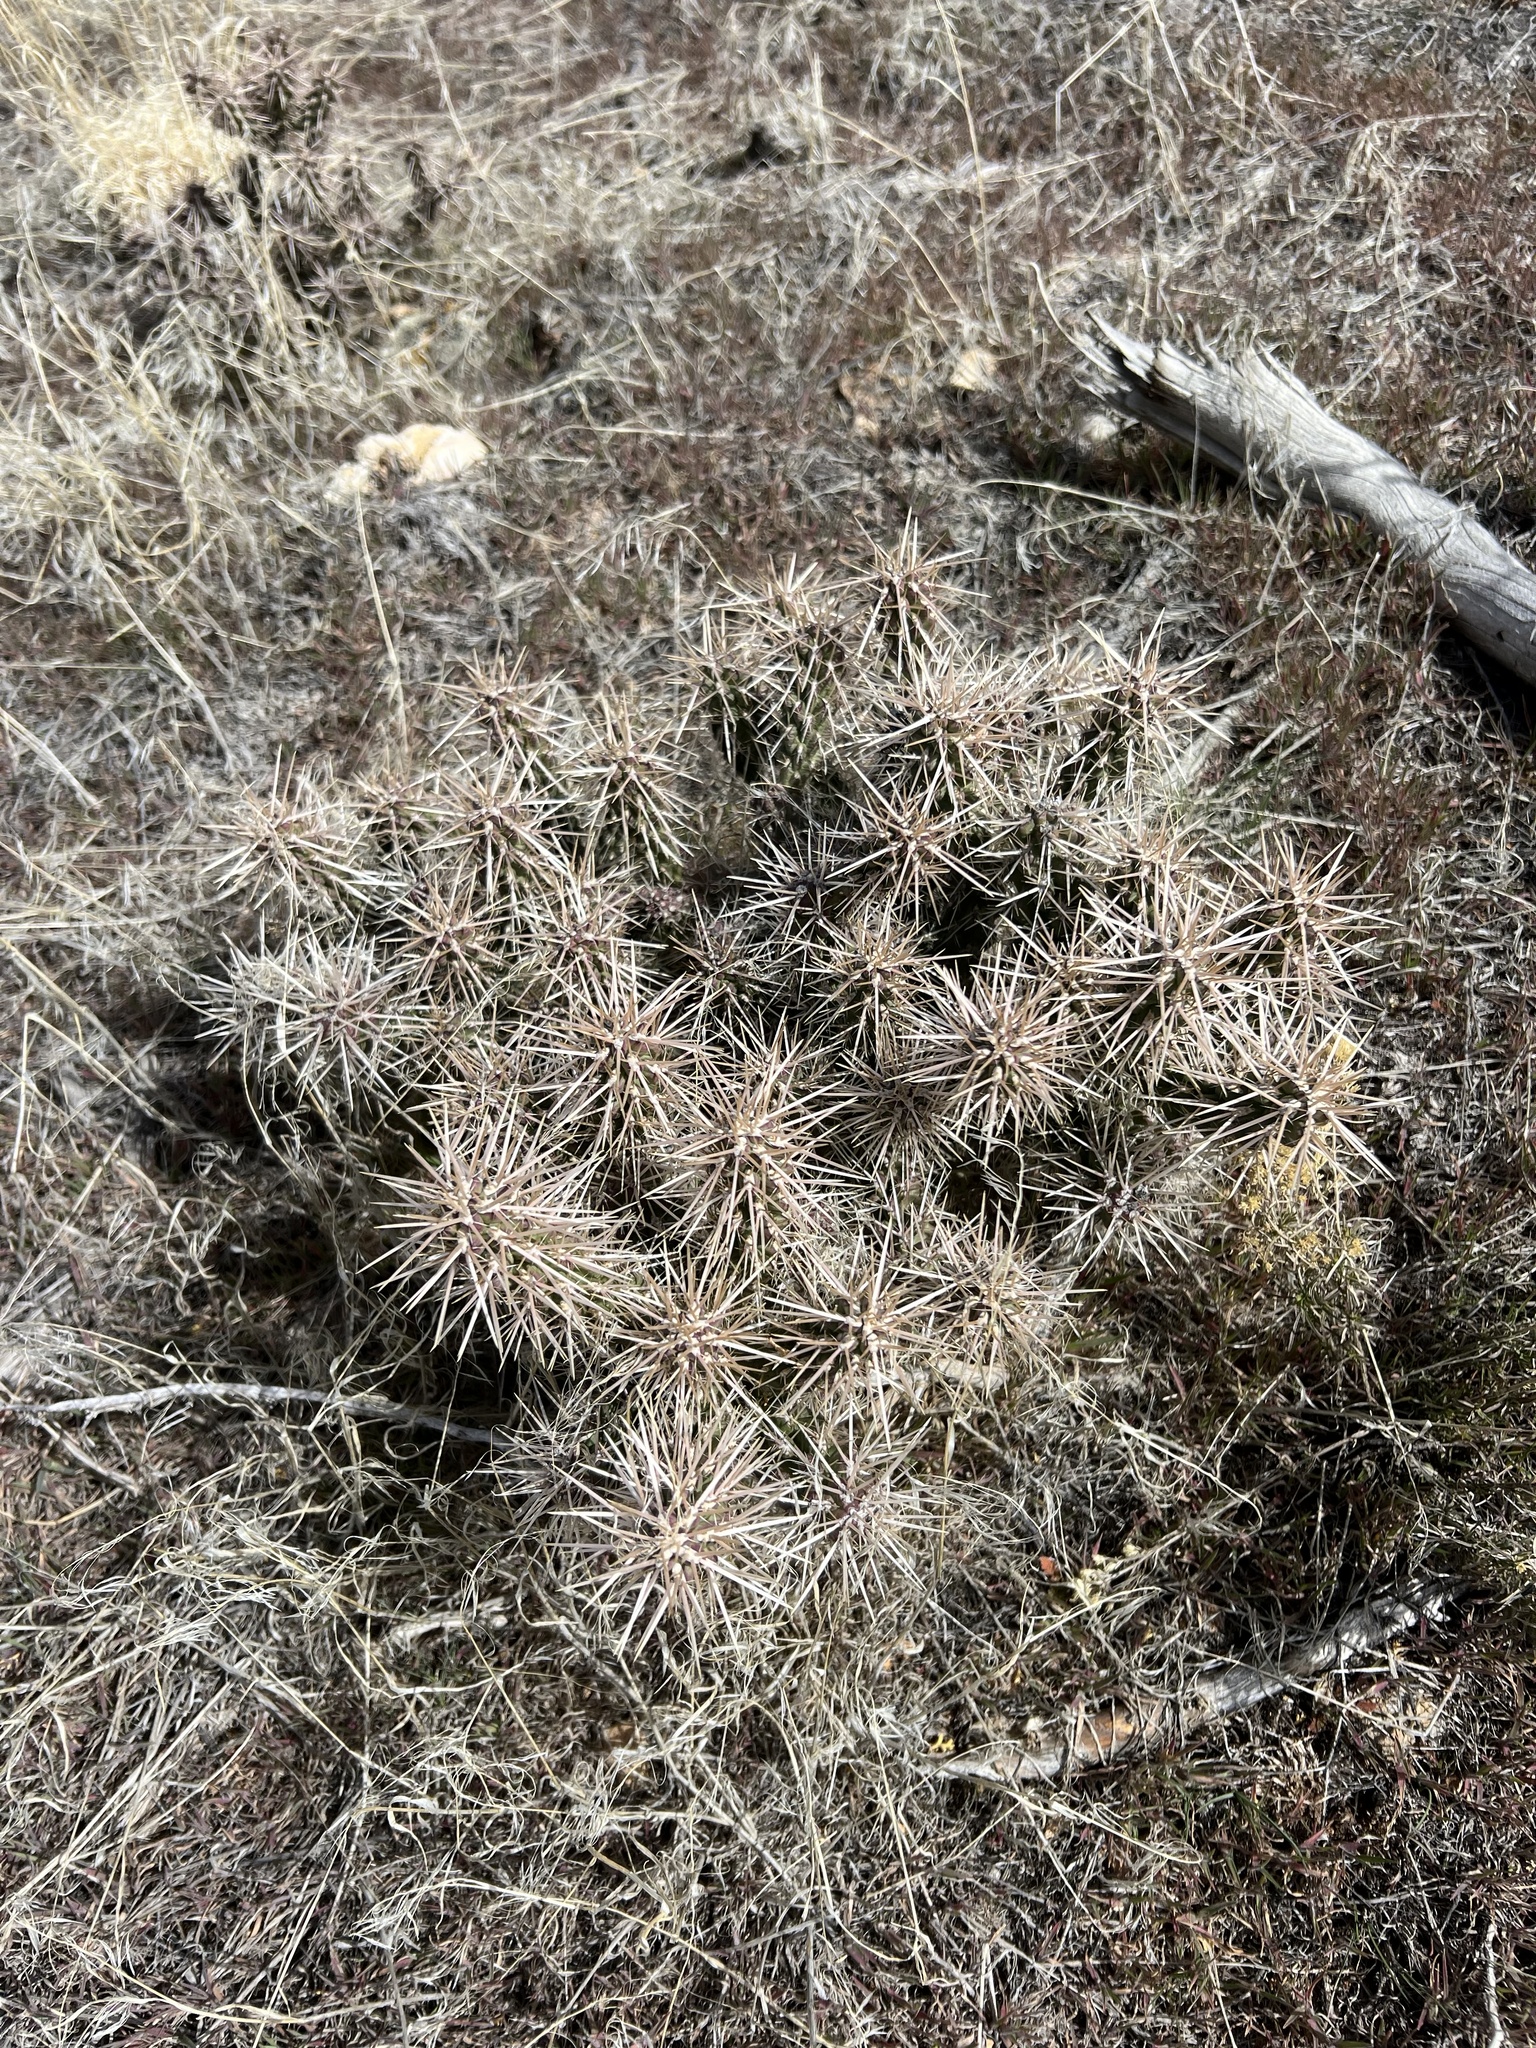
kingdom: Plantae
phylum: Tracheophyta
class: Magnoliopsida
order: Caryophyllales
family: Cactaceae
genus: Cylindropuntia
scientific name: Cylindropuntia whipplei
